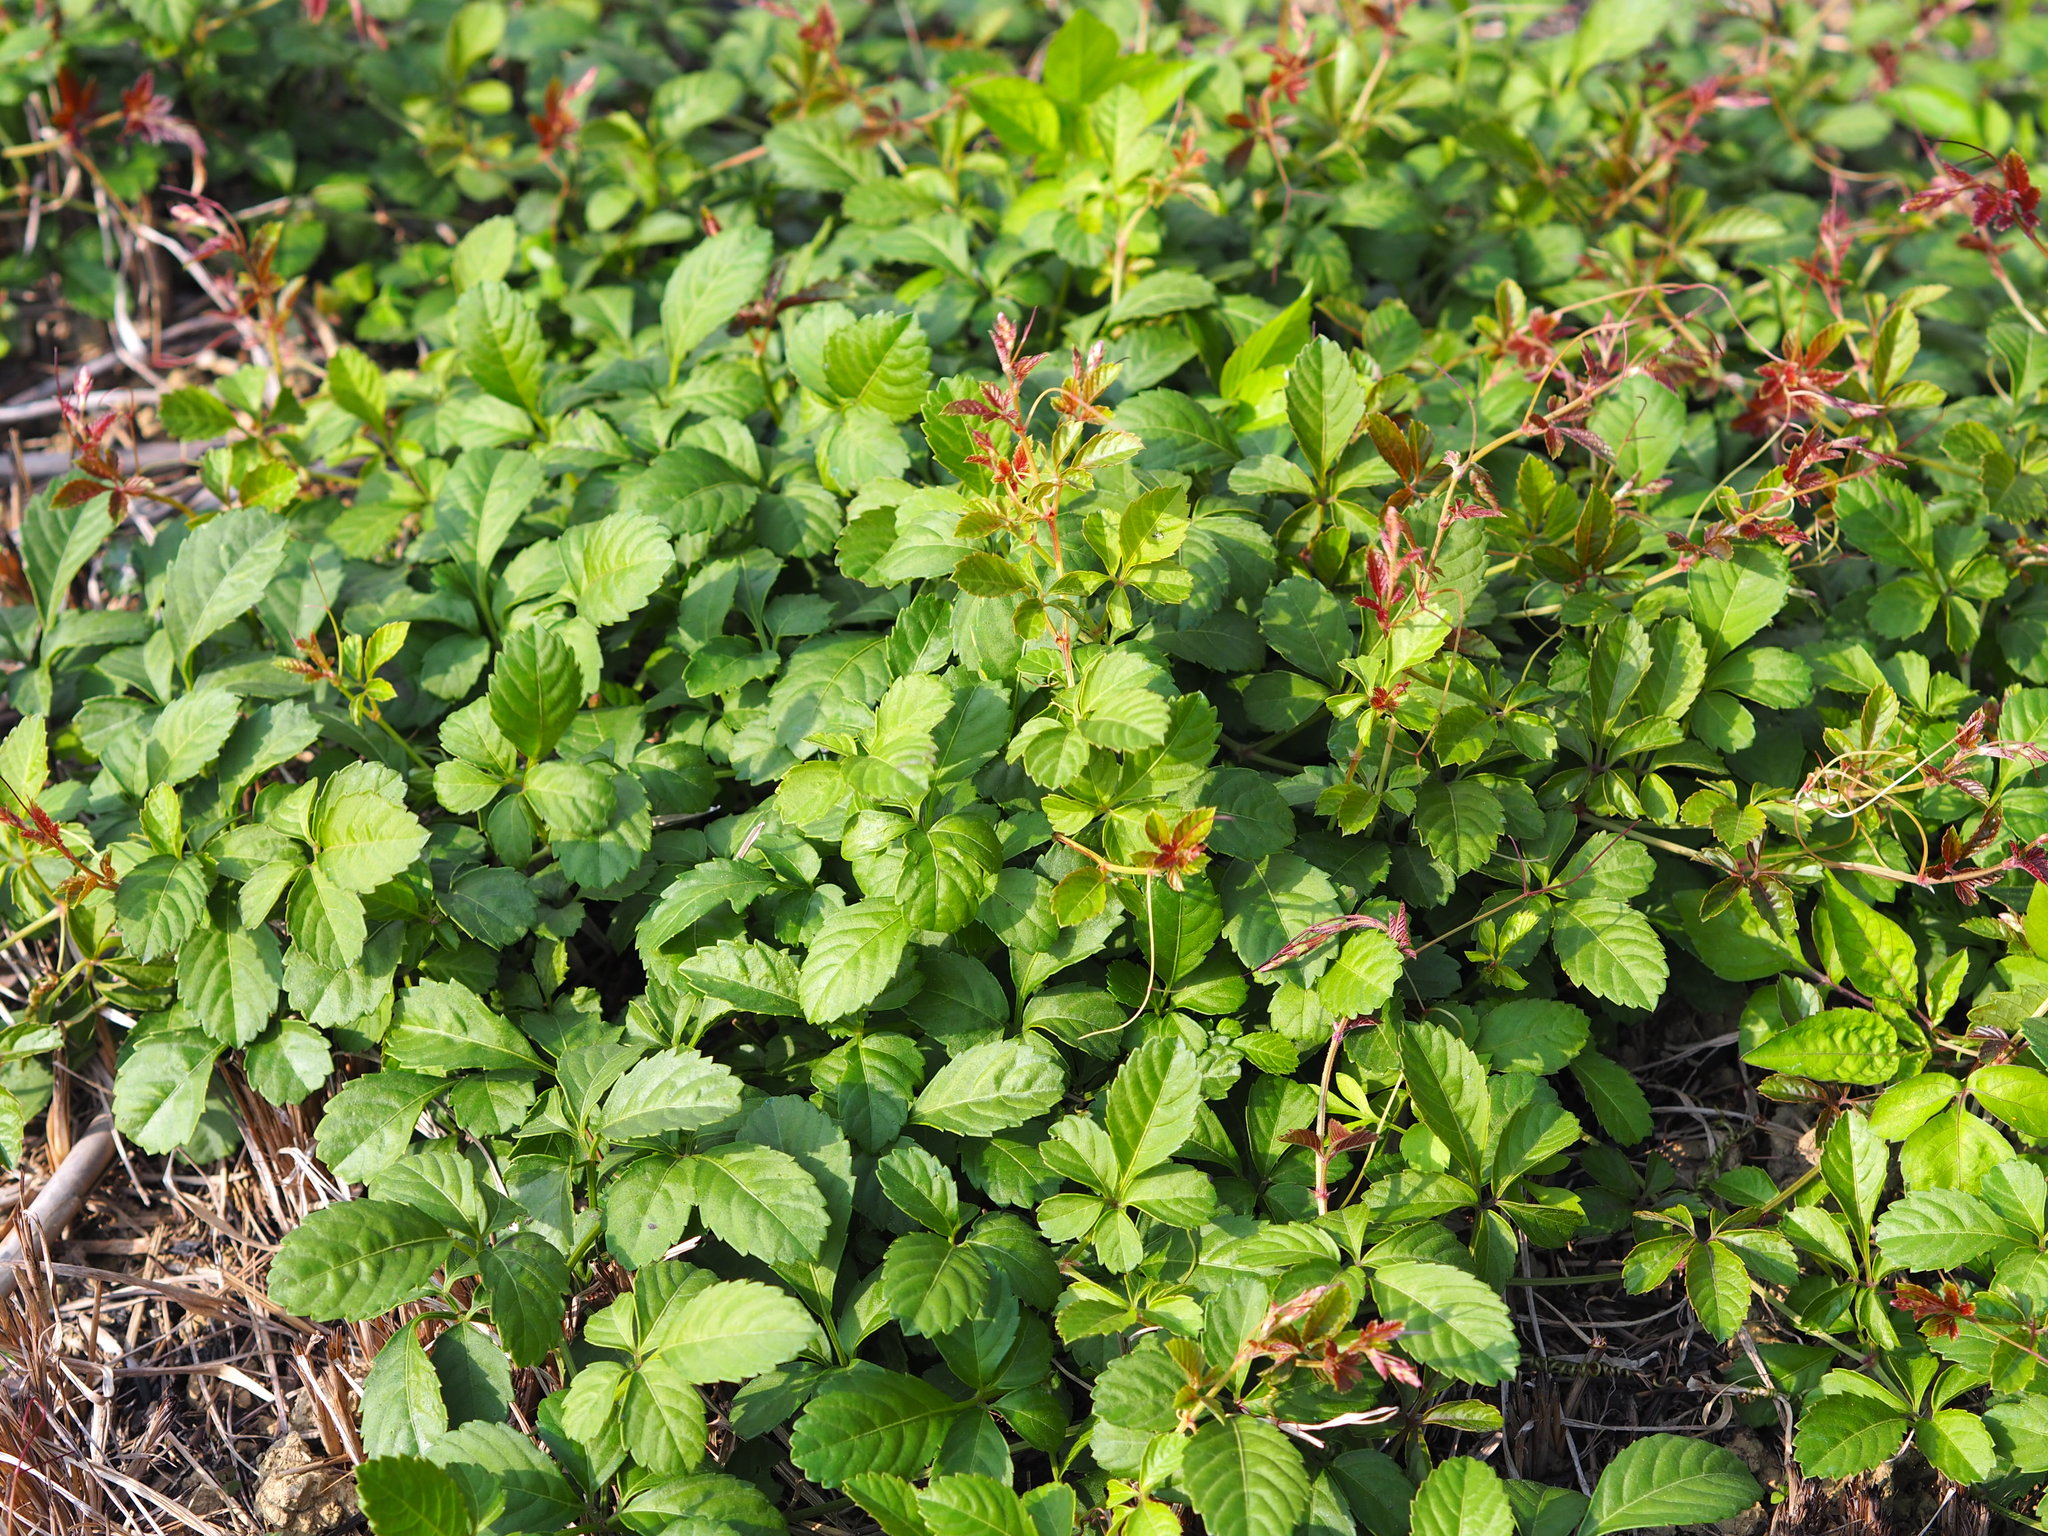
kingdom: Plantae
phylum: Tracheophyta
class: Magnoliopsida
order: Vitales
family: Vitaceae
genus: Causonis
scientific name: Causonis japonica
